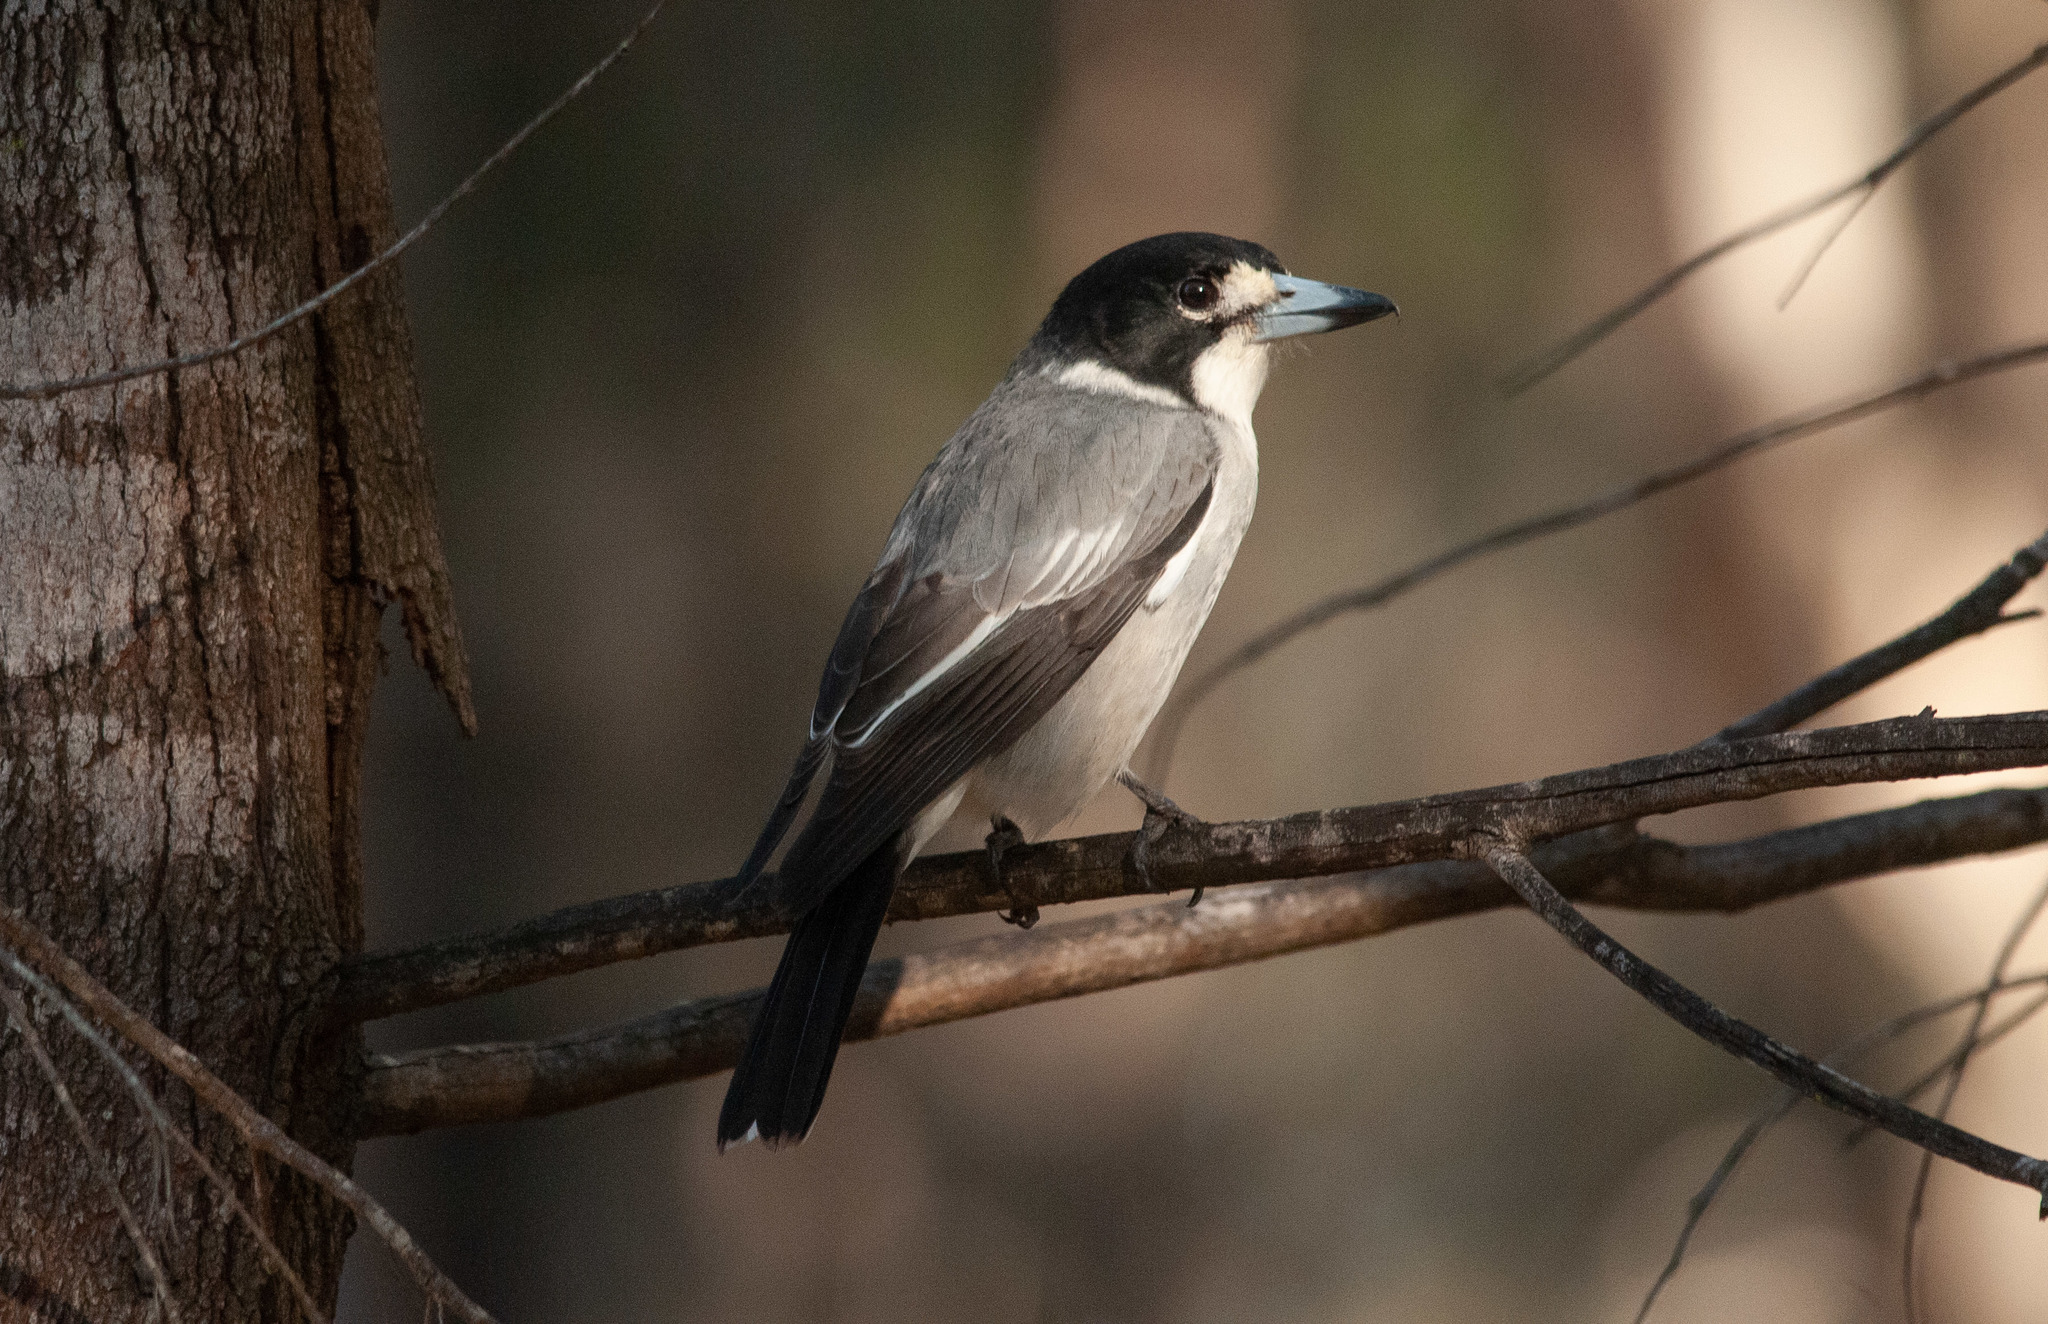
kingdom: Animalia
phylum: Chordata
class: Aves
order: Passeriformes
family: Cracticidae
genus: Cracticus
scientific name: Cracticus torquatus
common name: Grey butcherbird
